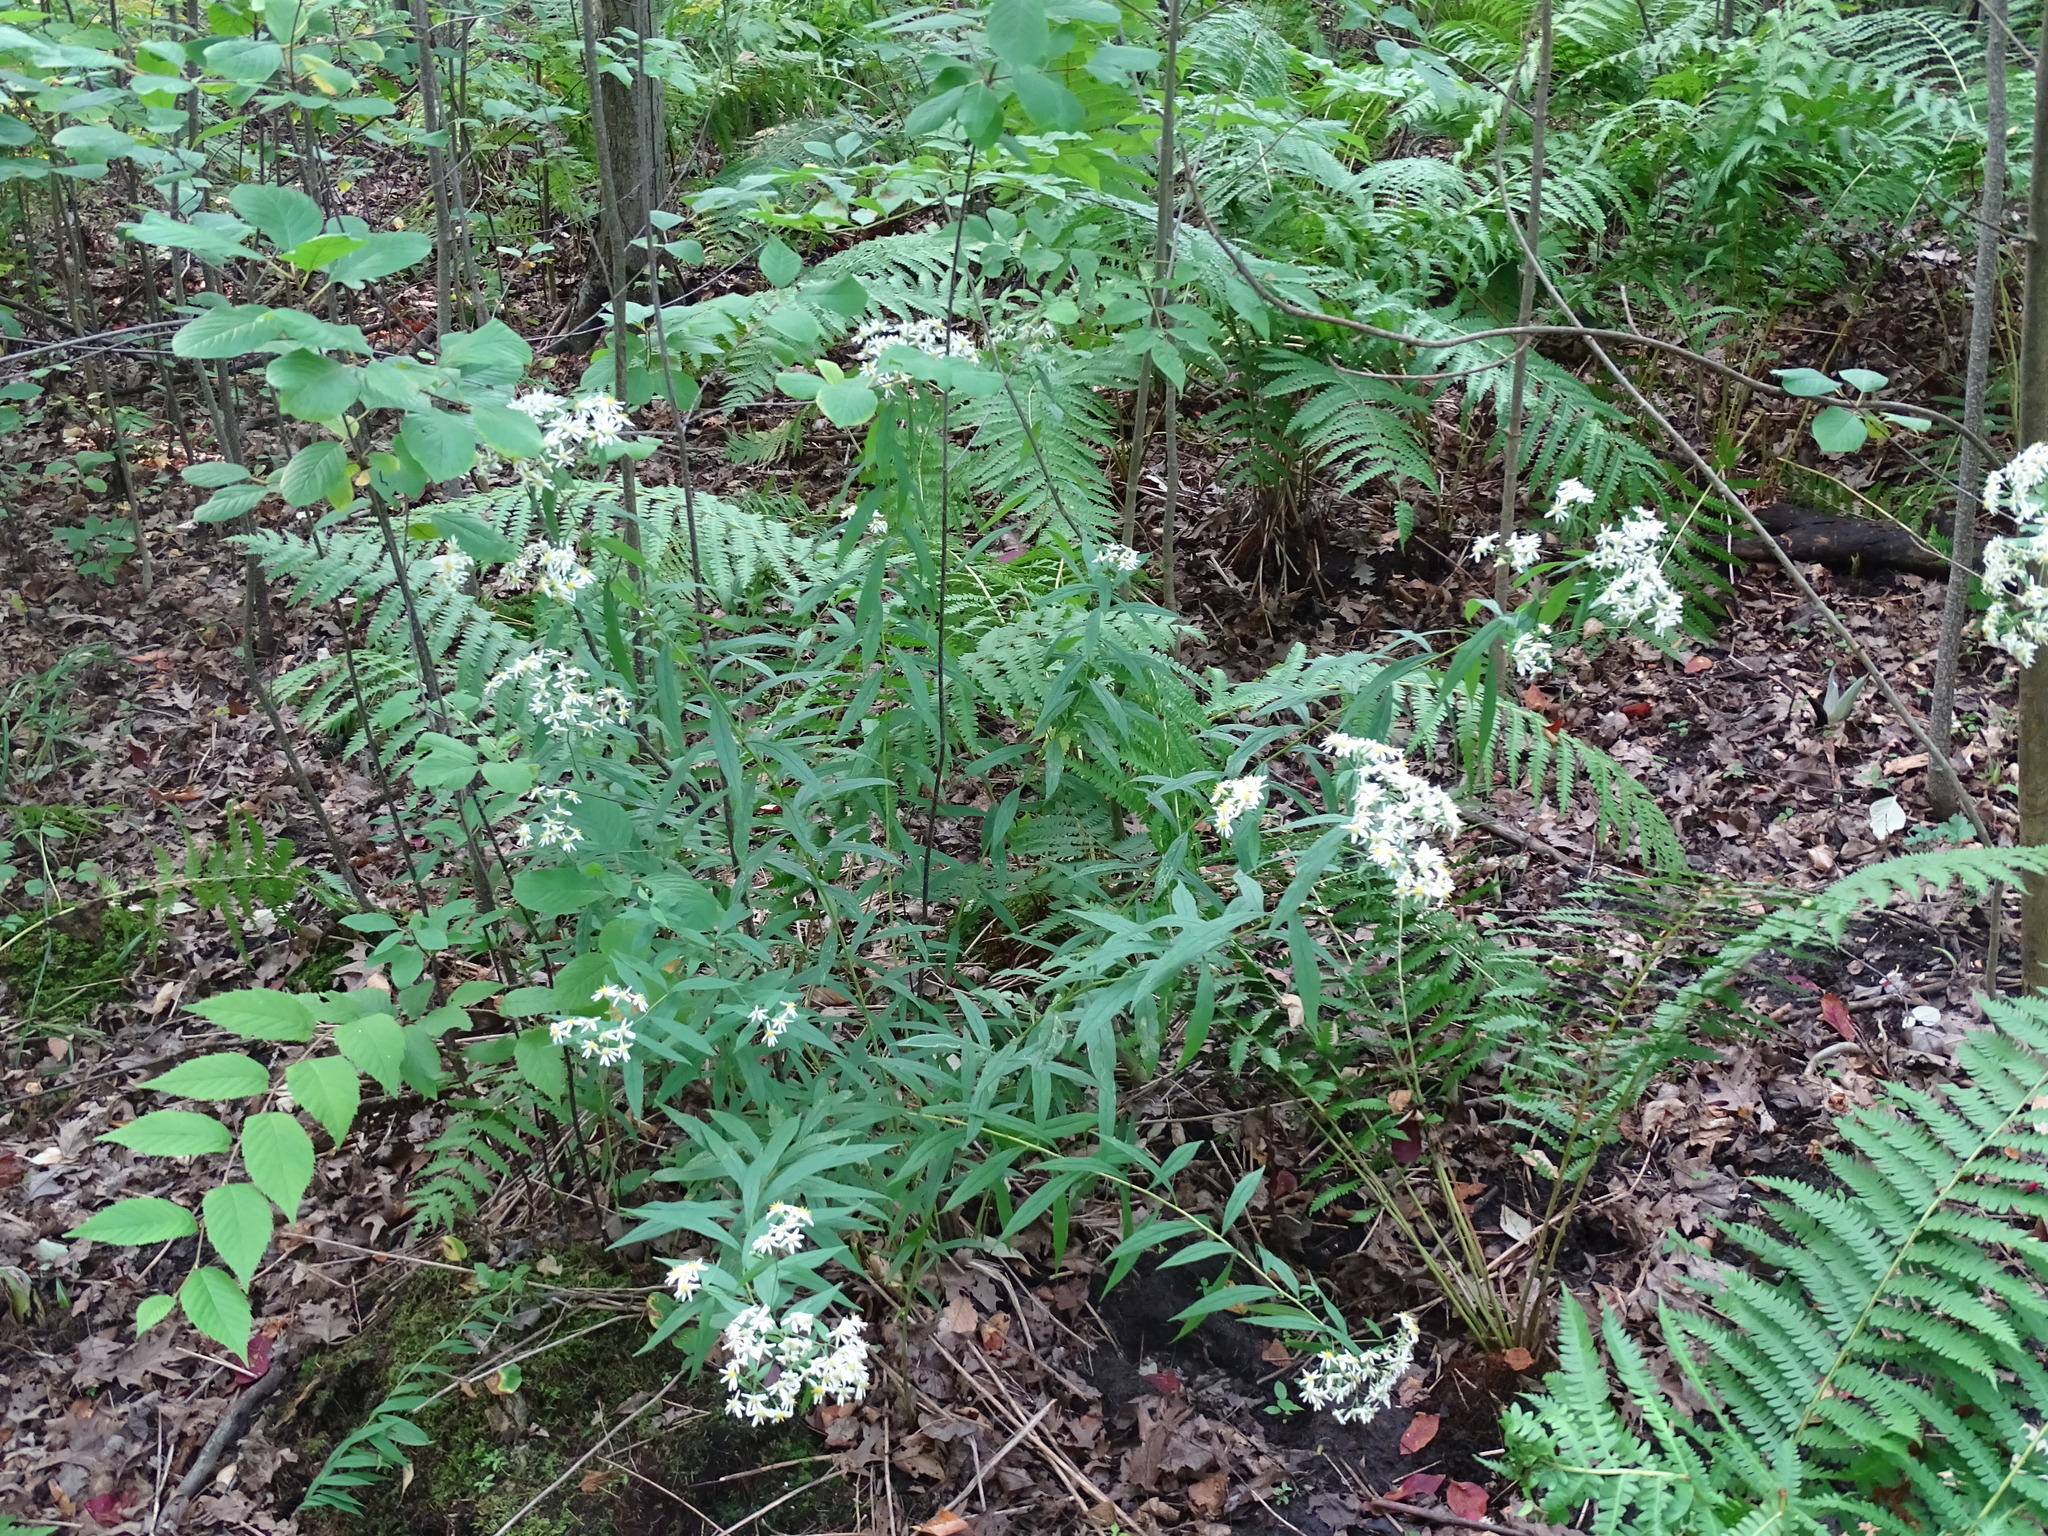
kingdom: Plantae
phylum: Tracheophyta
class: Magnoliopsida
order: Asterales
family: Asteraceae
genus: Doellingeria
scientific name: Doellingeria umbellata
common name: Flat-top white aster
